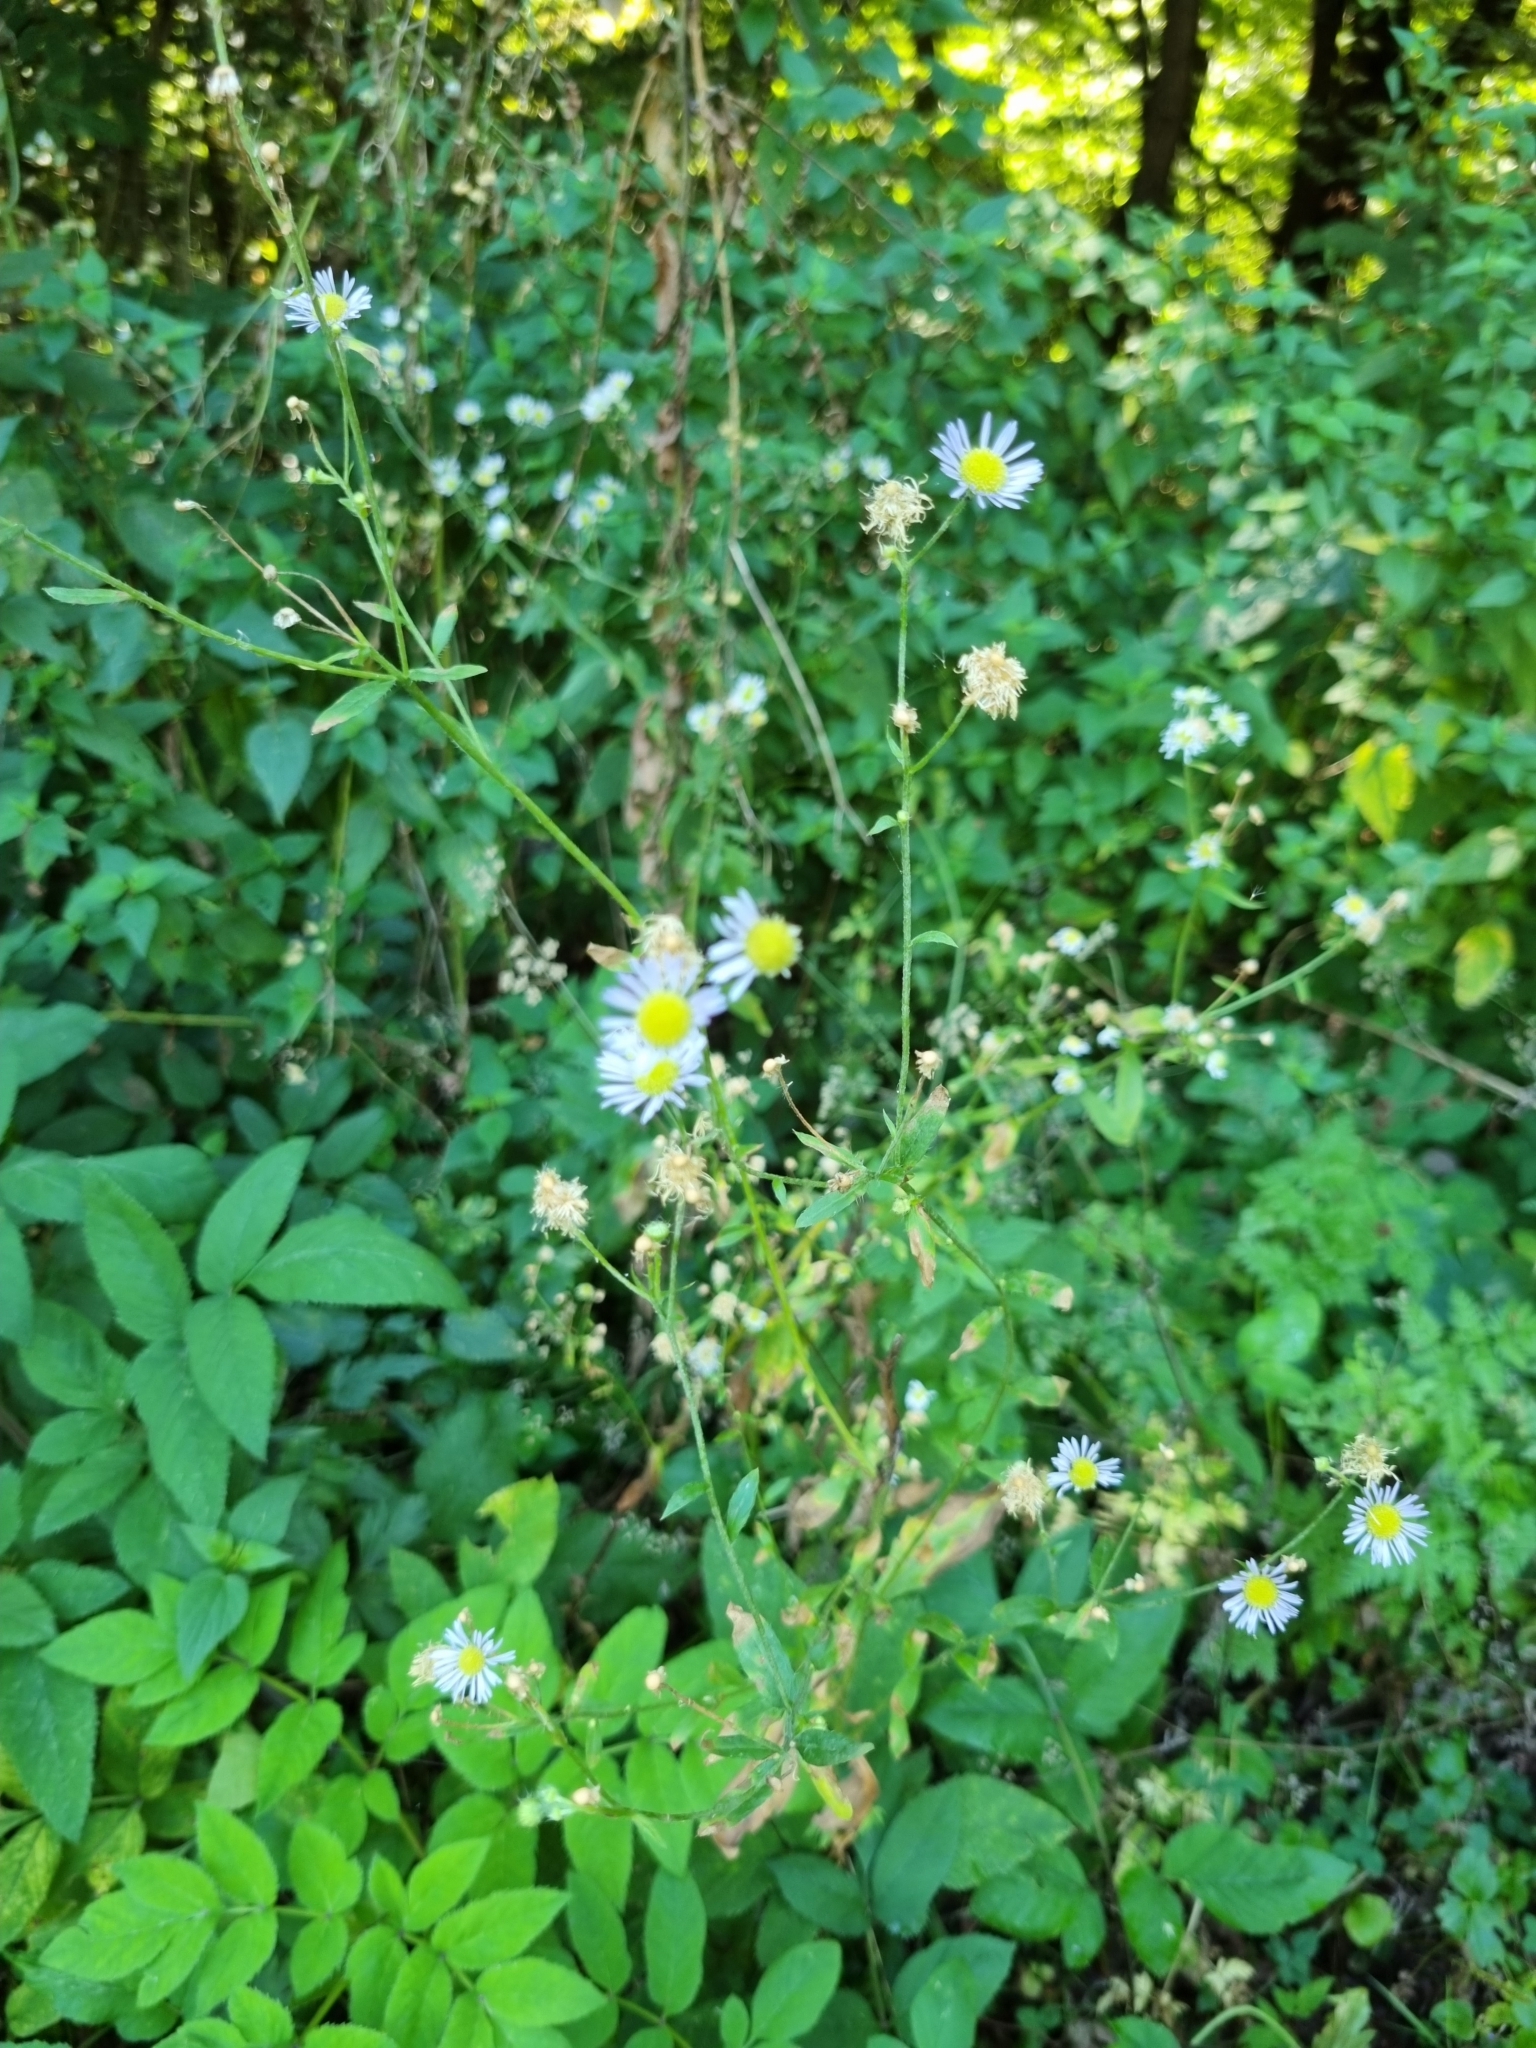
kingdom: Plantae
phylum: Tracheophyta
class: Magnoliopsida
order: Asterales
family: Asteraceae
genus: Erigeron
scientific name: Erigeron annuus
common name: Tall fleabane
